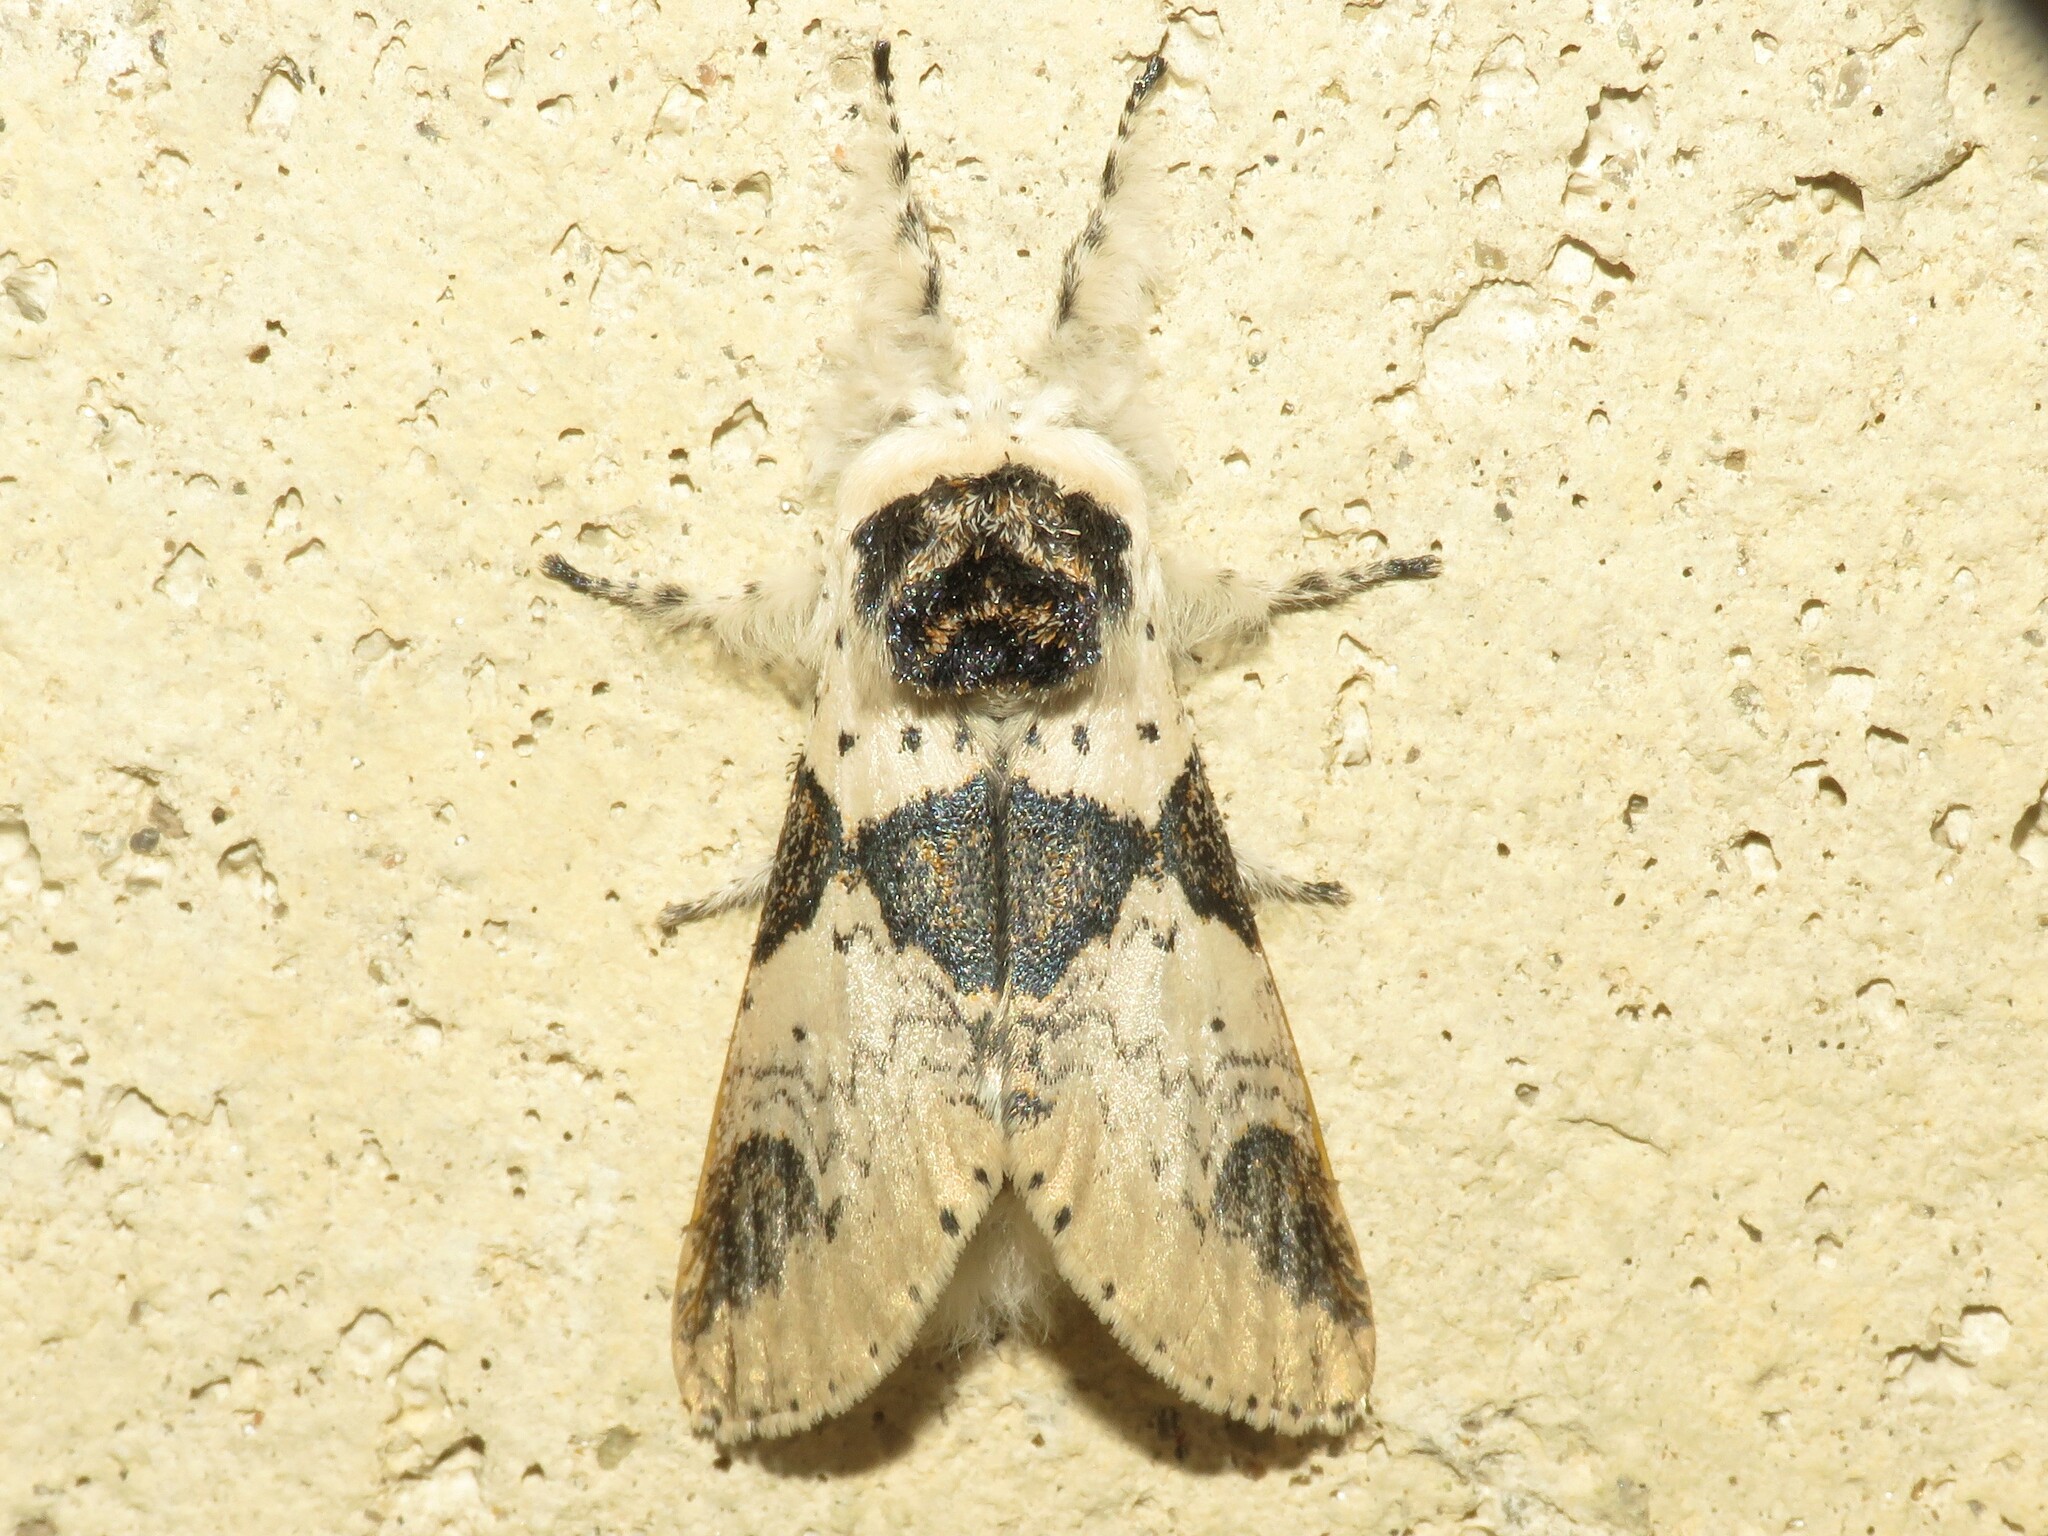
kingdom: Animalia
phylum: Arthropoda
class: Insecta
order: Lepidoptera
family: Notodontidae
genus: Furcula
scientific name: Furcula modesta
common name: Modest furcula moth
